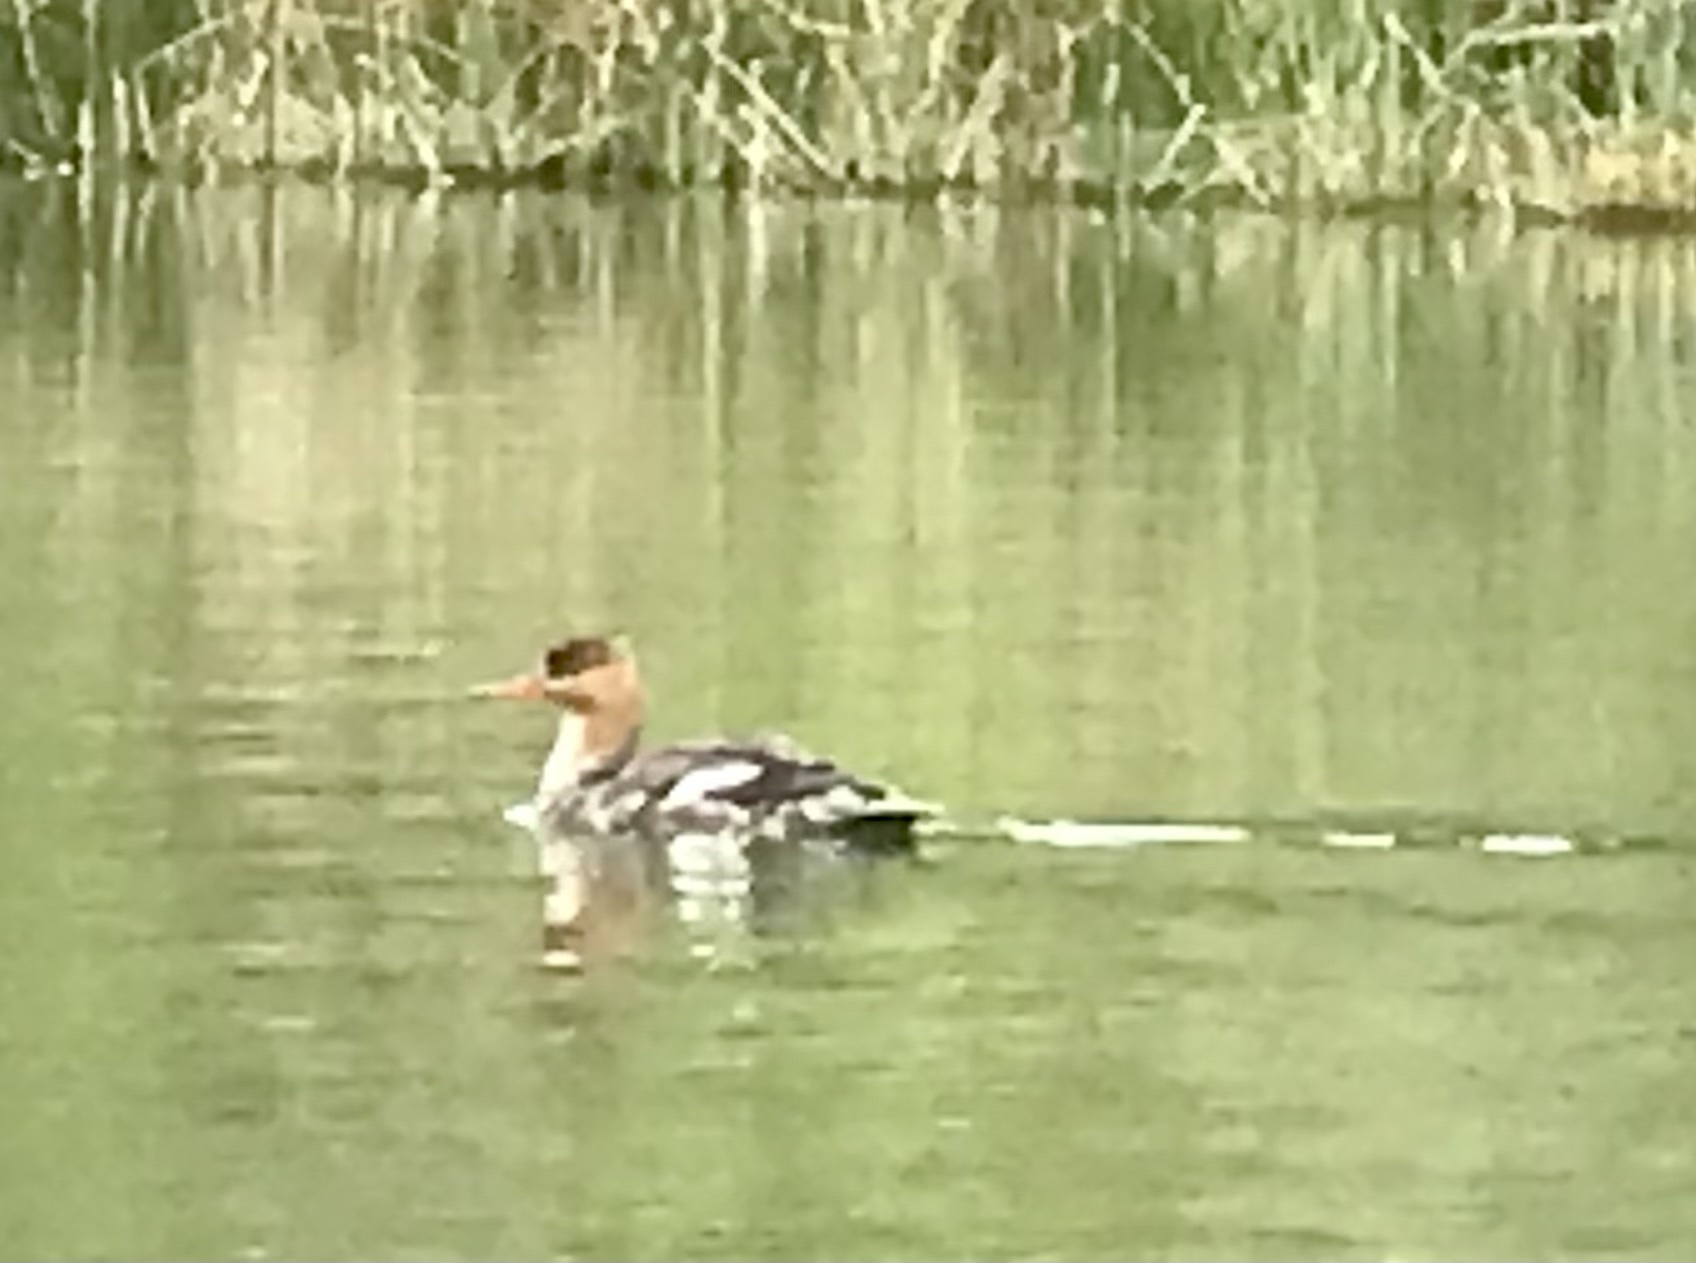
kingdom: Animalia
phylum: Chordata
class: Aves
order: Anseriformes
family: Anatidae
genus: Mergus
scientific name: Mergus serrator
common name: Red-breasted merganser
